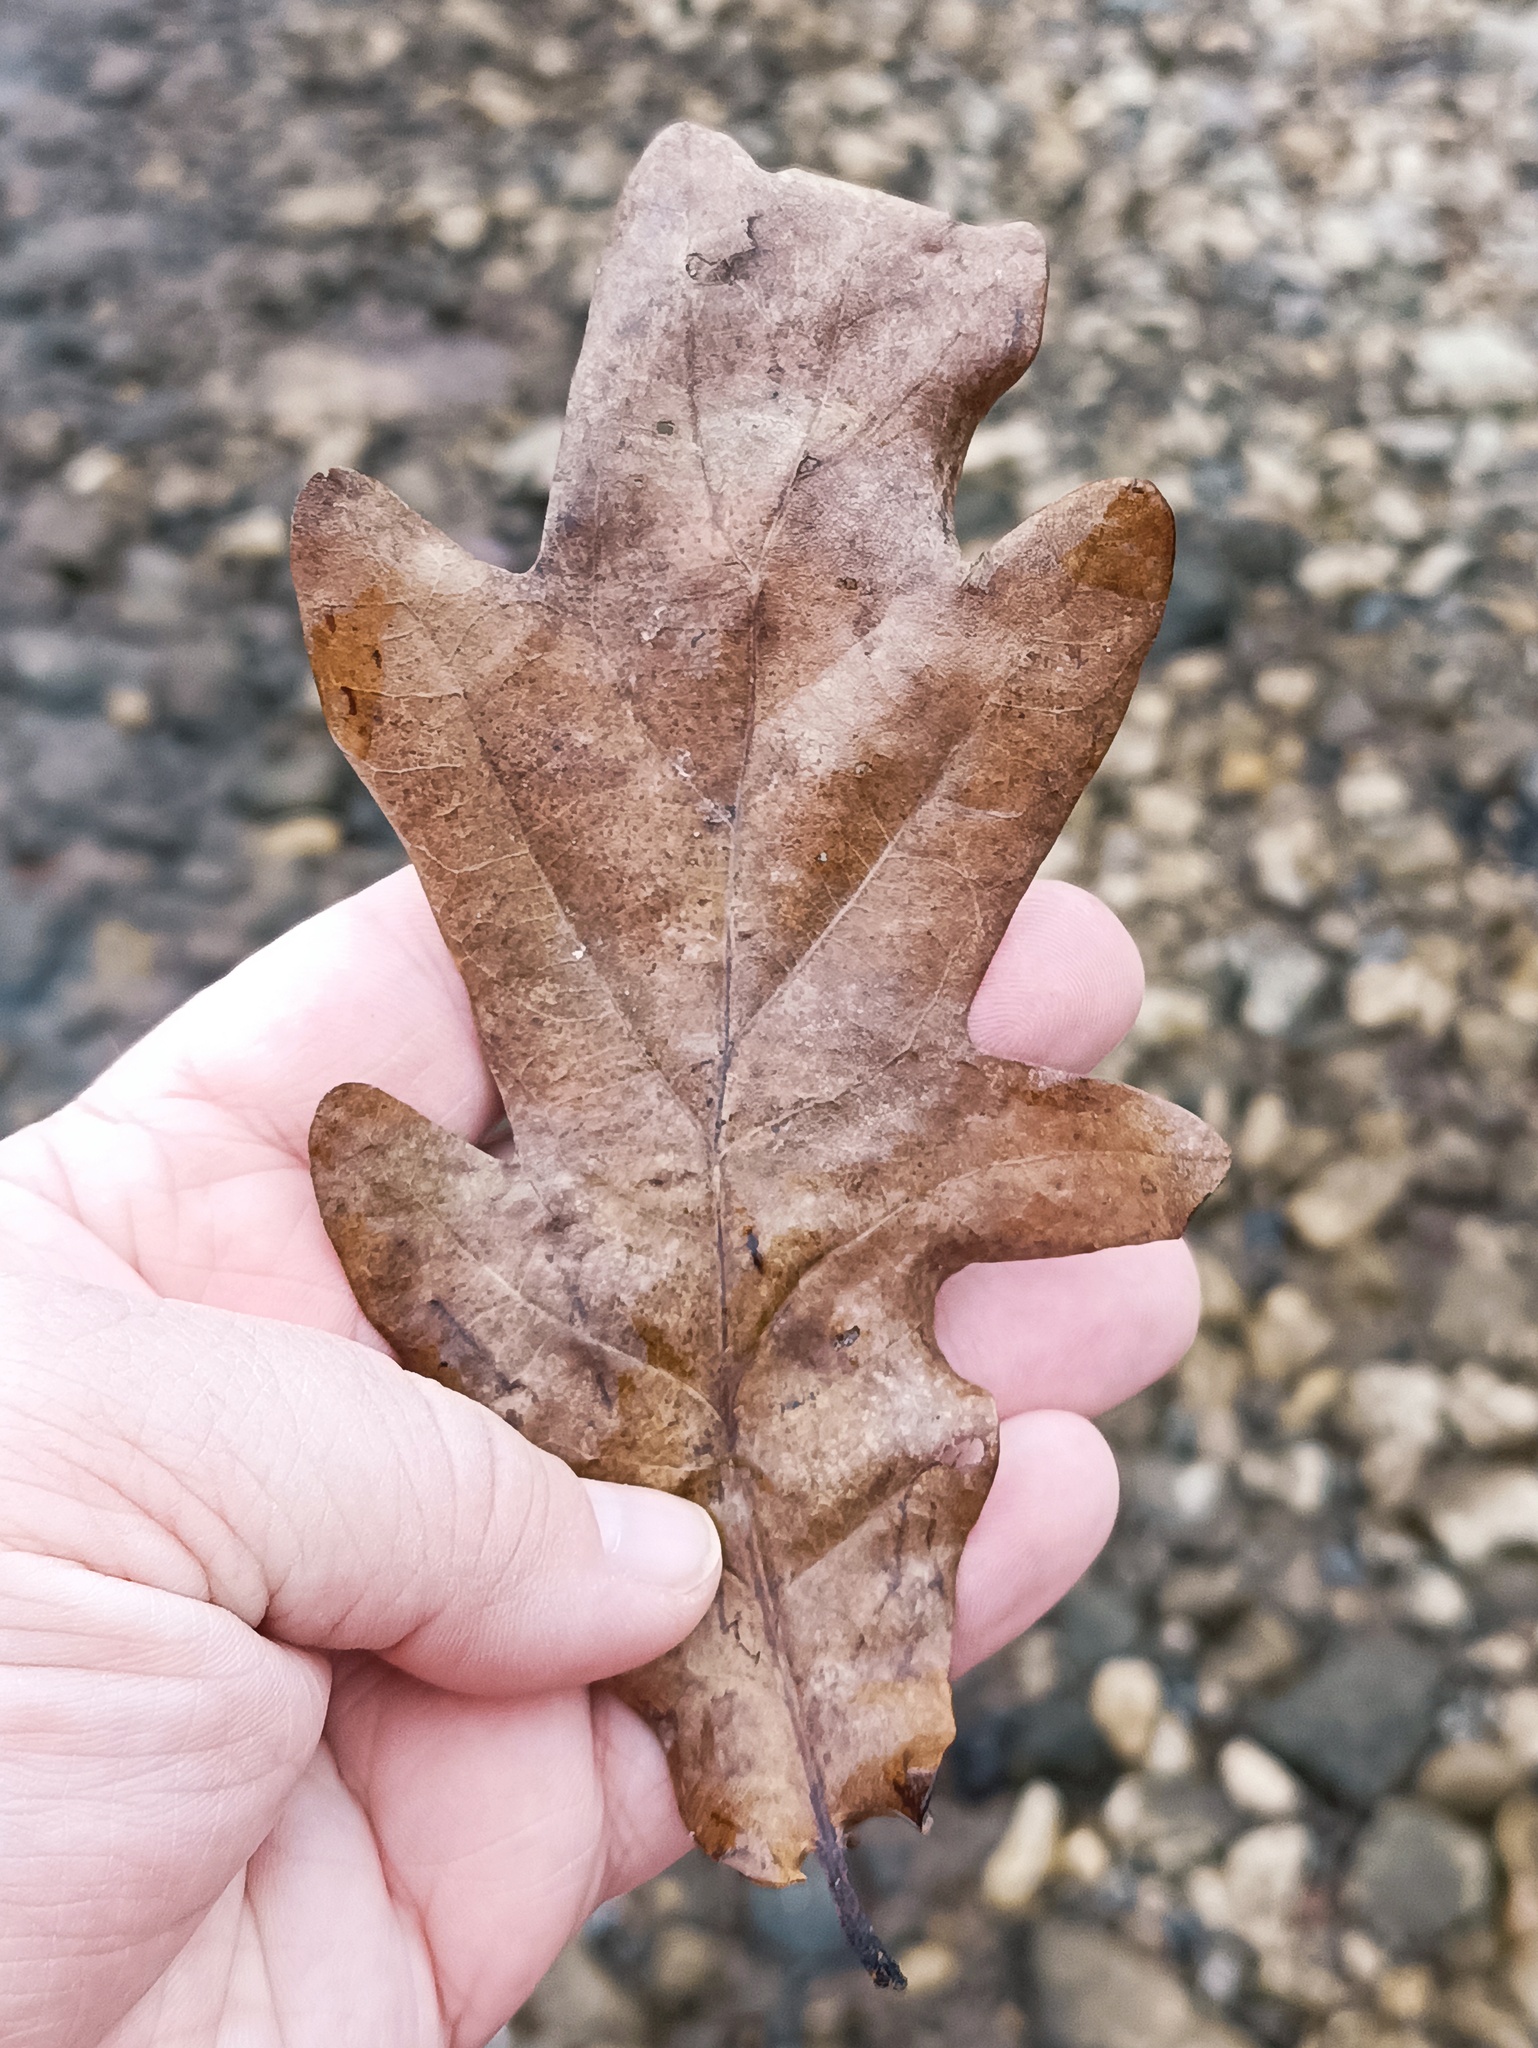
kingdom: Plantae
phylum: Tracheophyta
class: Magnoliopsida
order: Fagales
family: Fagaceae
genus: Quercus
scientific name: Quercus robur
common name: Pedunculate oak
